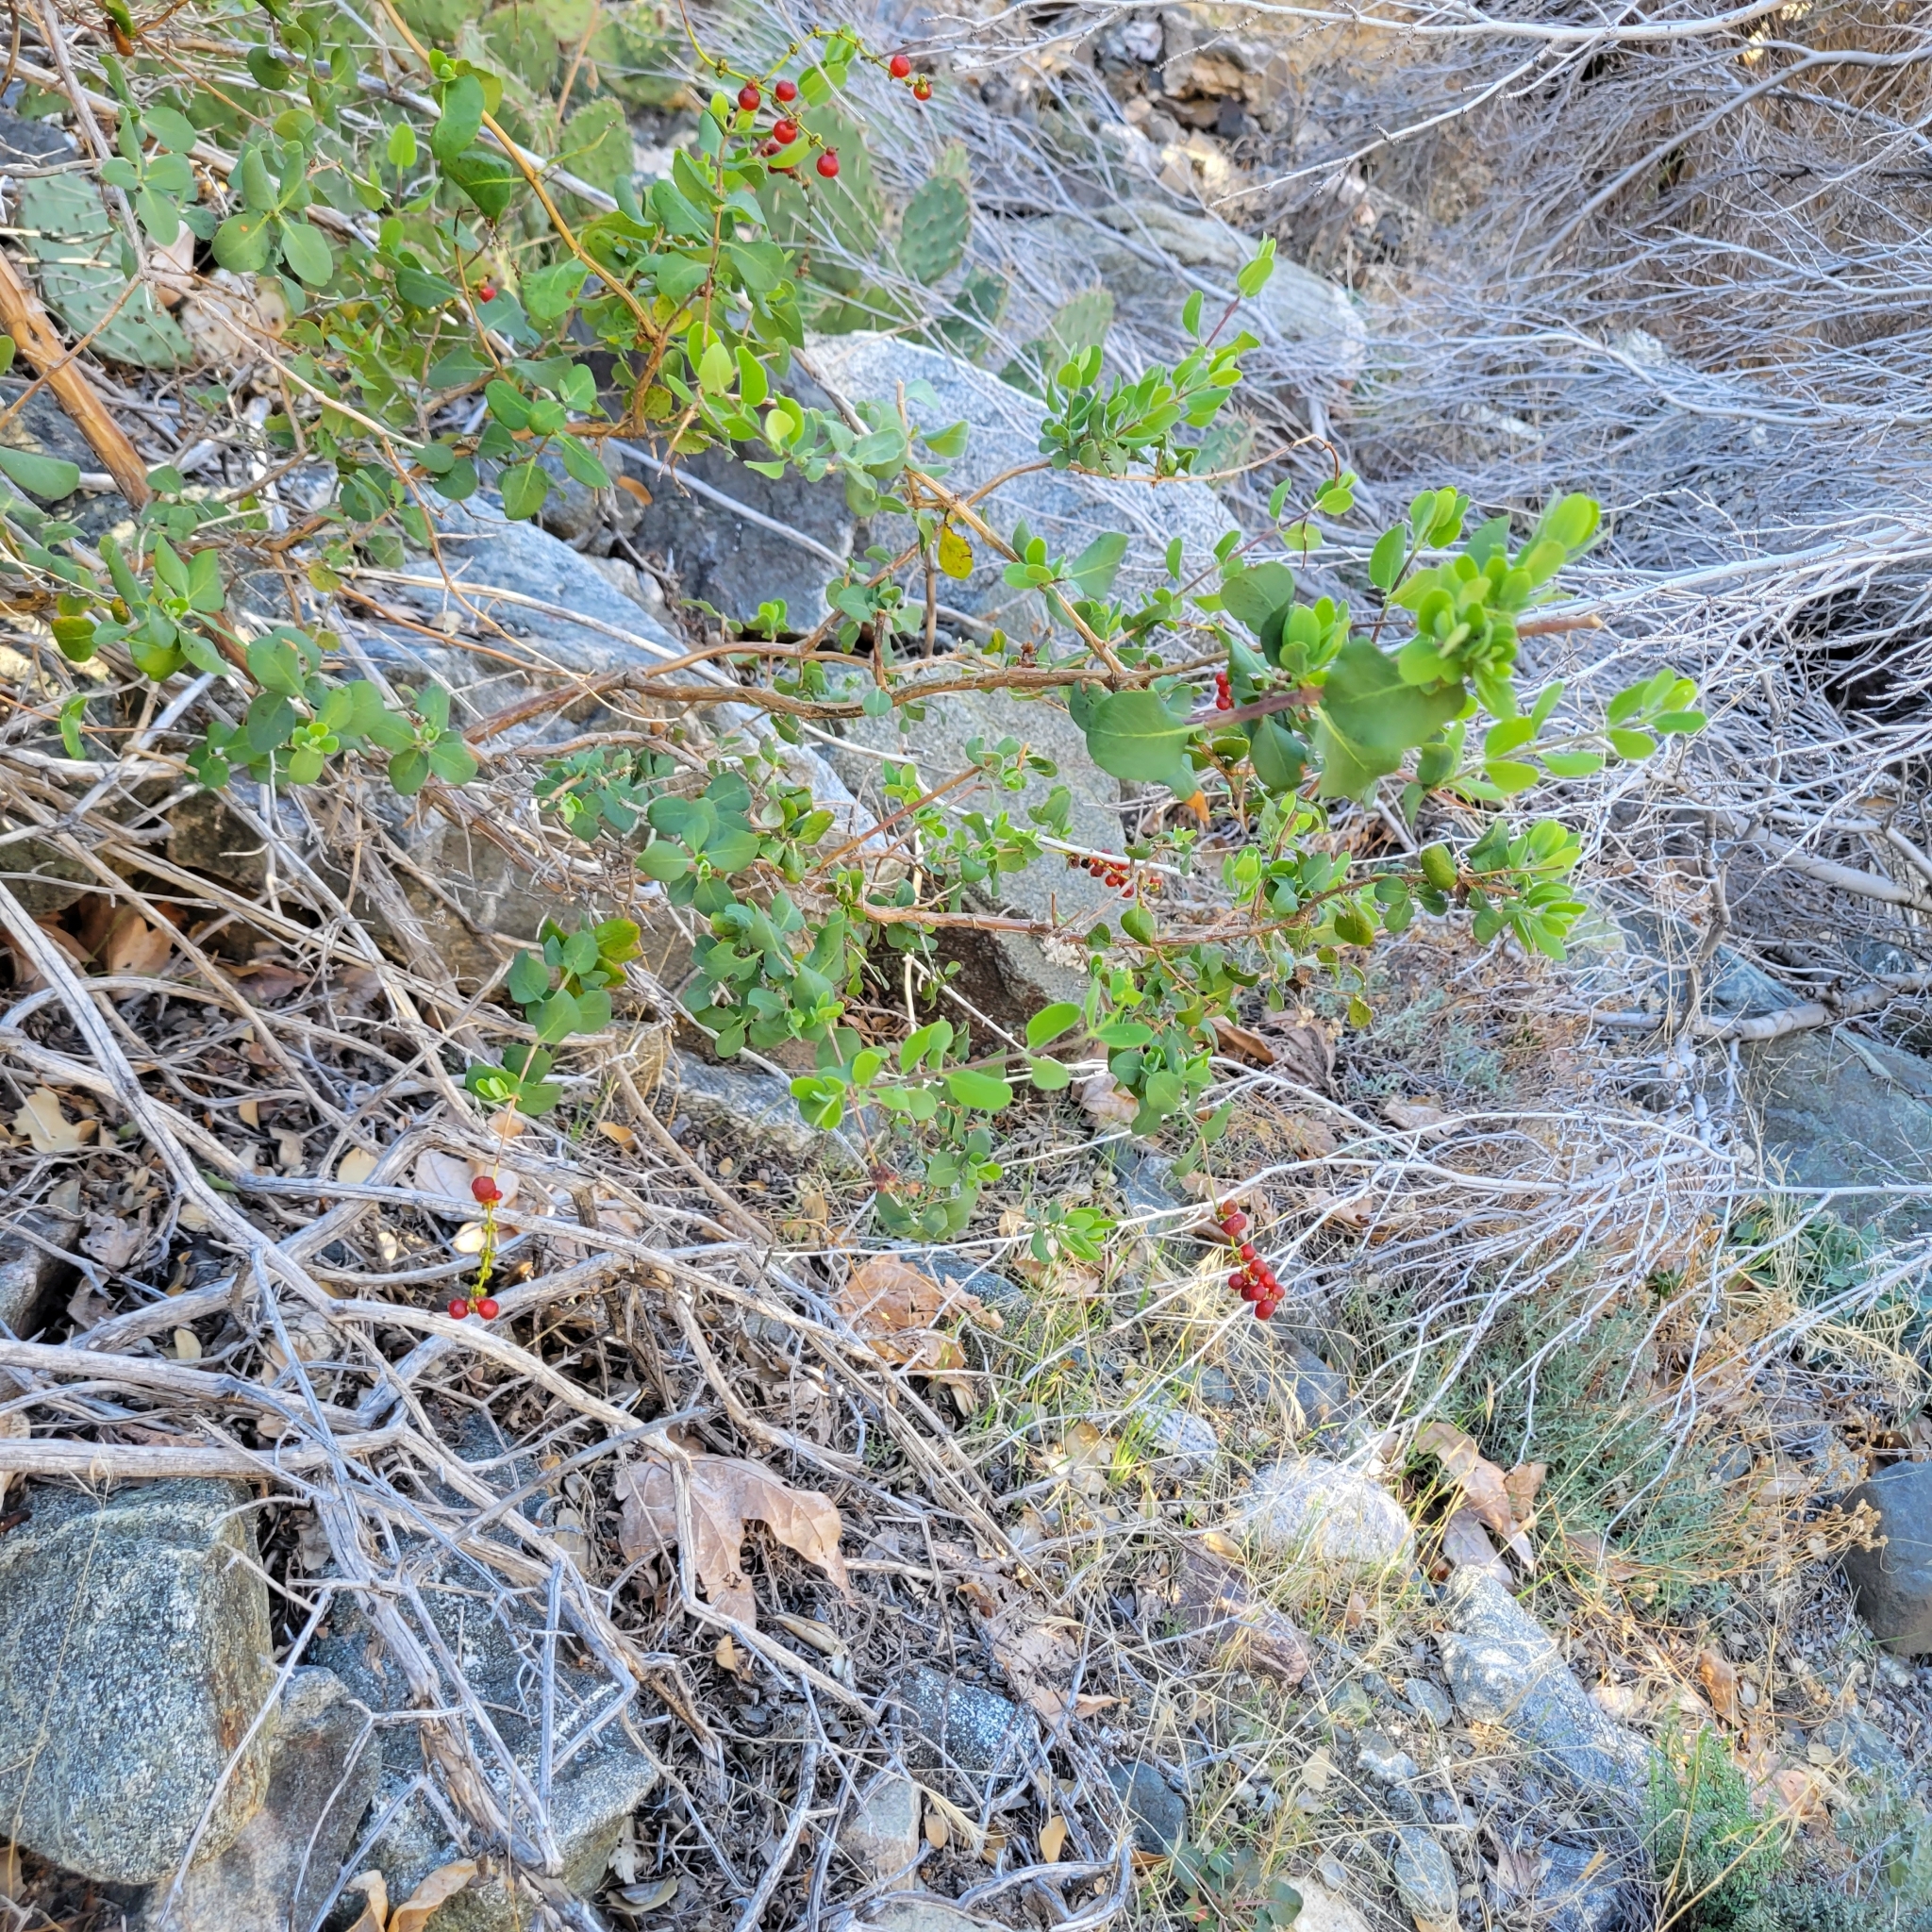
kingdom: Plantae
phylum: Tracheophyta
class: Magnoliopsida
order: Dipsacales
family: Caprifoliaceae
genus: Lonicera
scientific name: Lonicera interrupta
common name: Chaparral honeysuckle
